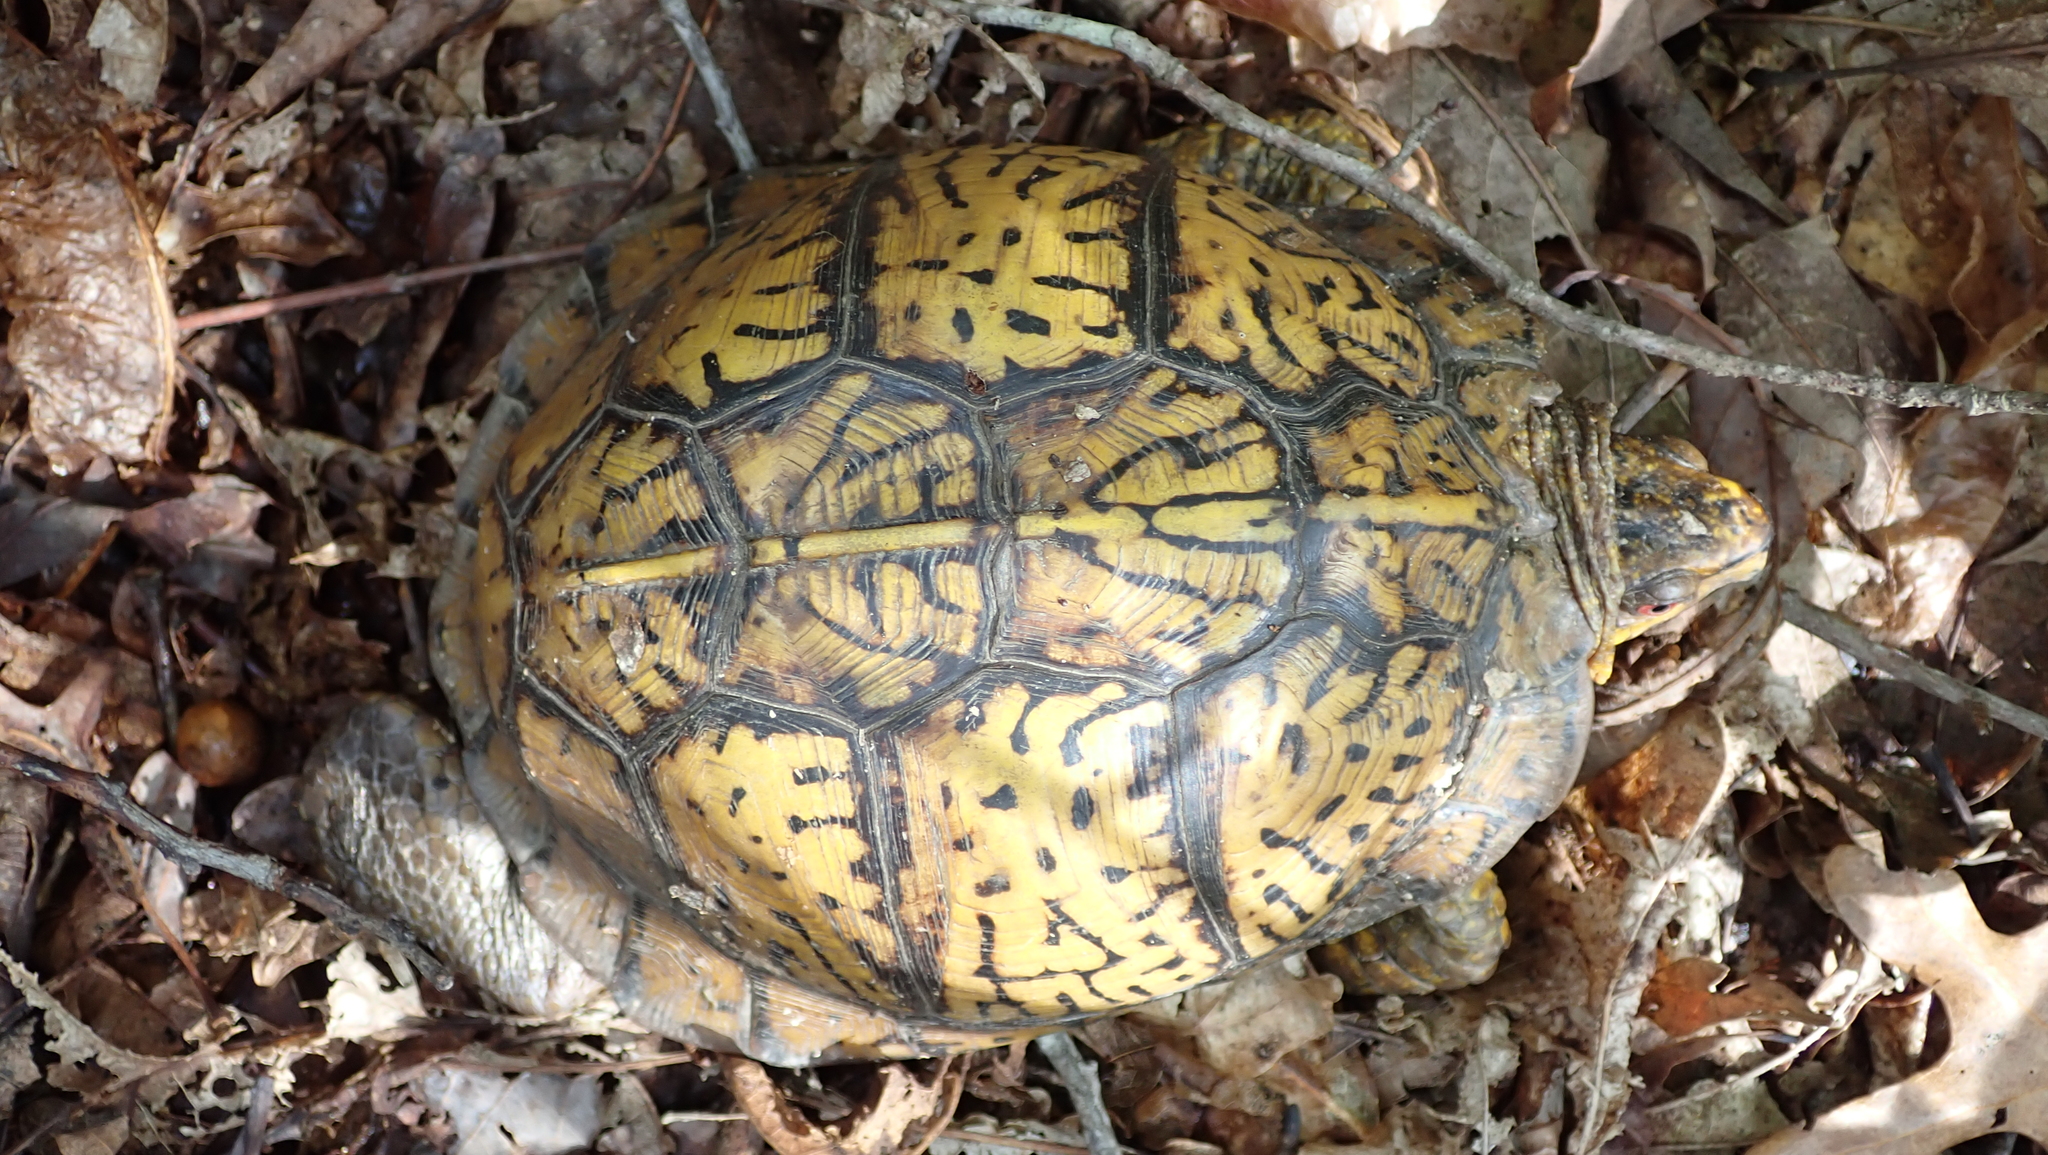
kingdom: Animalia
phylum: Chordata
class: Testudines
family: Emydidae
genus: Terrapene
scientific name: Terrapene carolina
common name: Common box turtle
